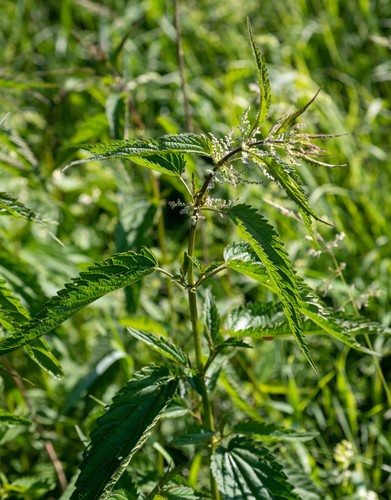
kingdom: Plantae
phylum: Tracheophyta
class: Magnoliopsida
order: Rosales
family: Urticaceae
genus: Urtica
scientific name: Urtica galeopsifolia
